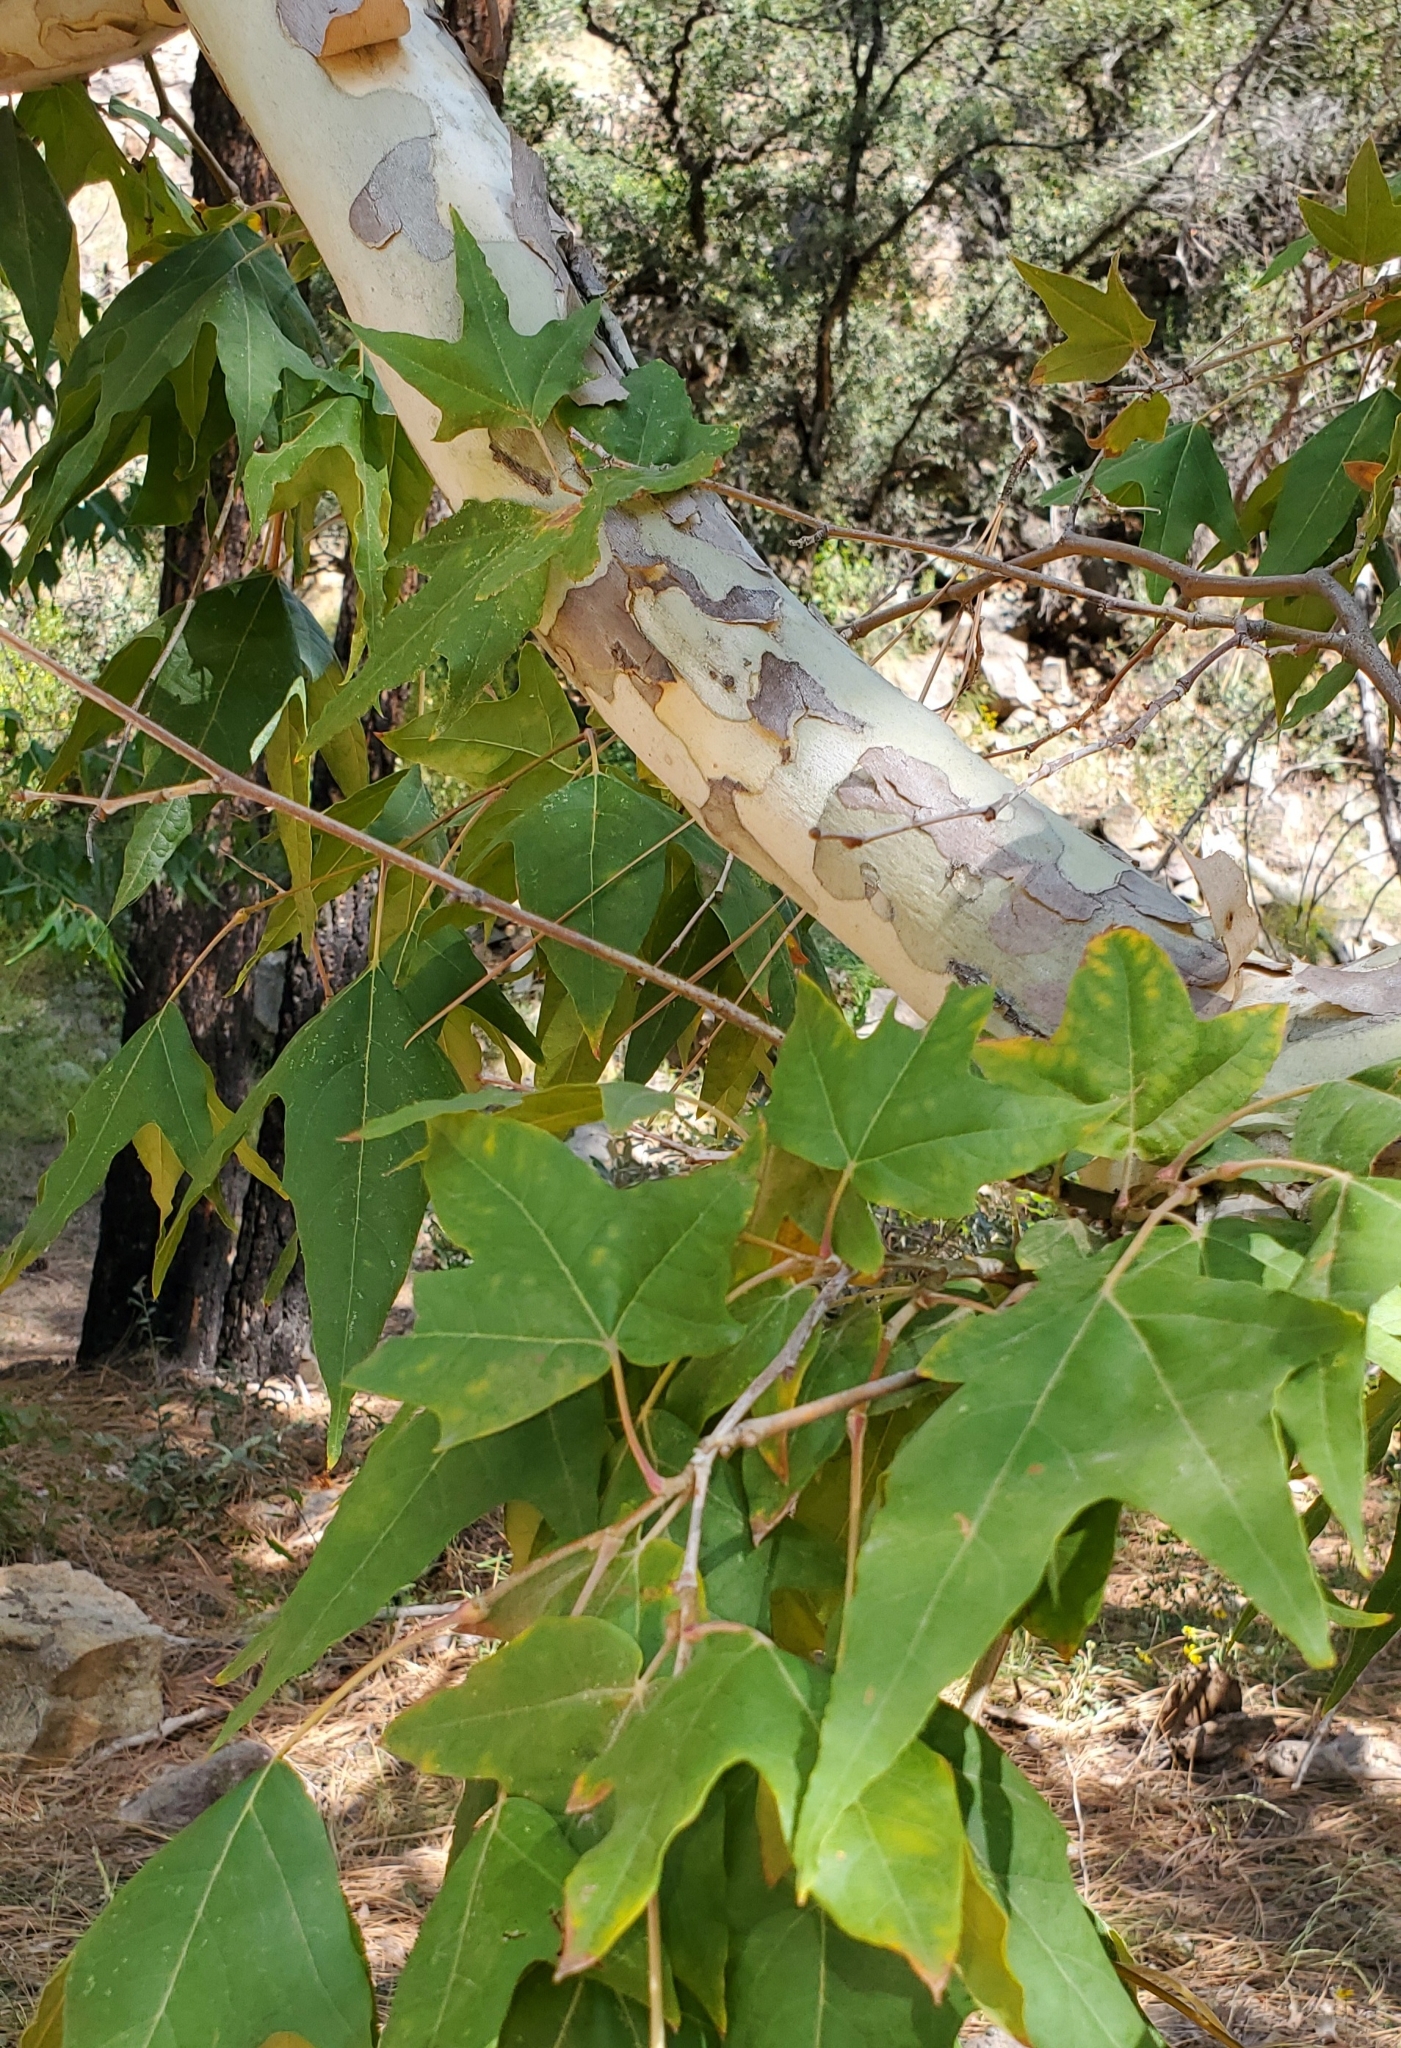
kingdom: Plantae
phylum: Tracheophyta
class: Magnoliopsida
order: Proteales
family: Platanaceae
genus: Platanus
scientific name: Platanus wrightii
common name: Arizona sycamore
